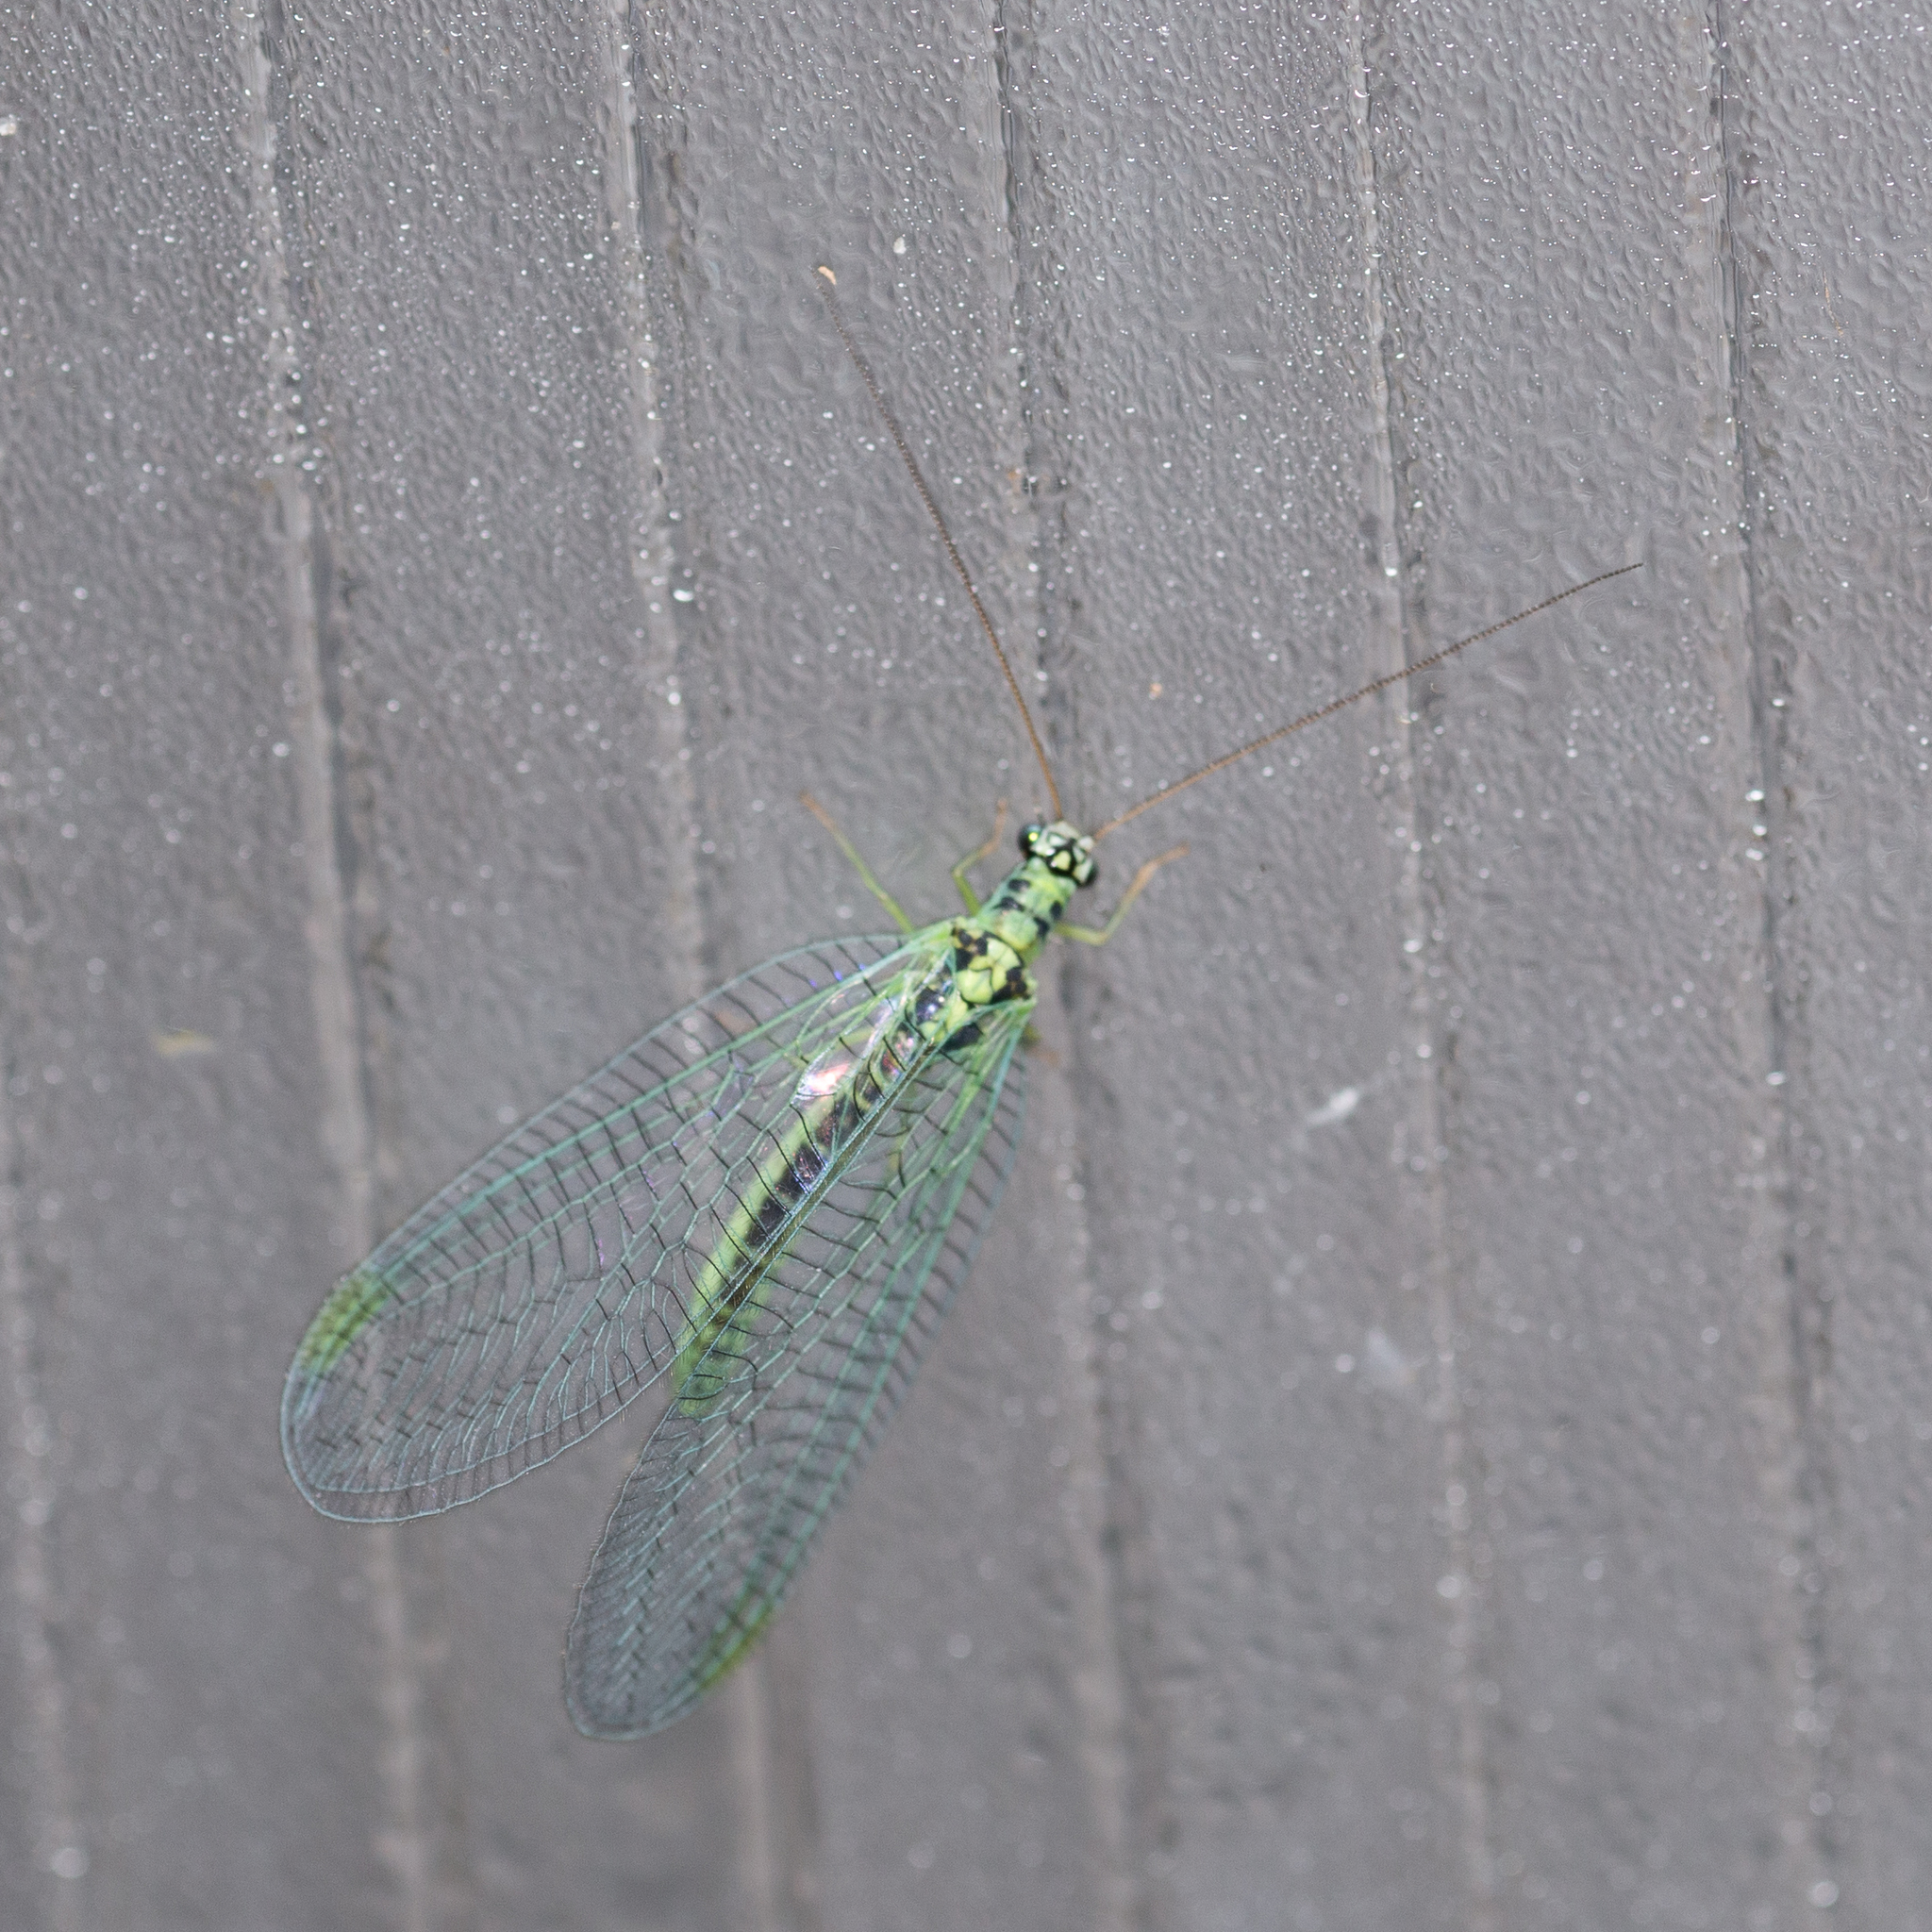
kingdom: Animalia
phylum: Arthropoda
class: Insecta
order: Neuroptera
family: Chrysopidae
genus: Chrysopa
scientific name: Chrysopa perla
